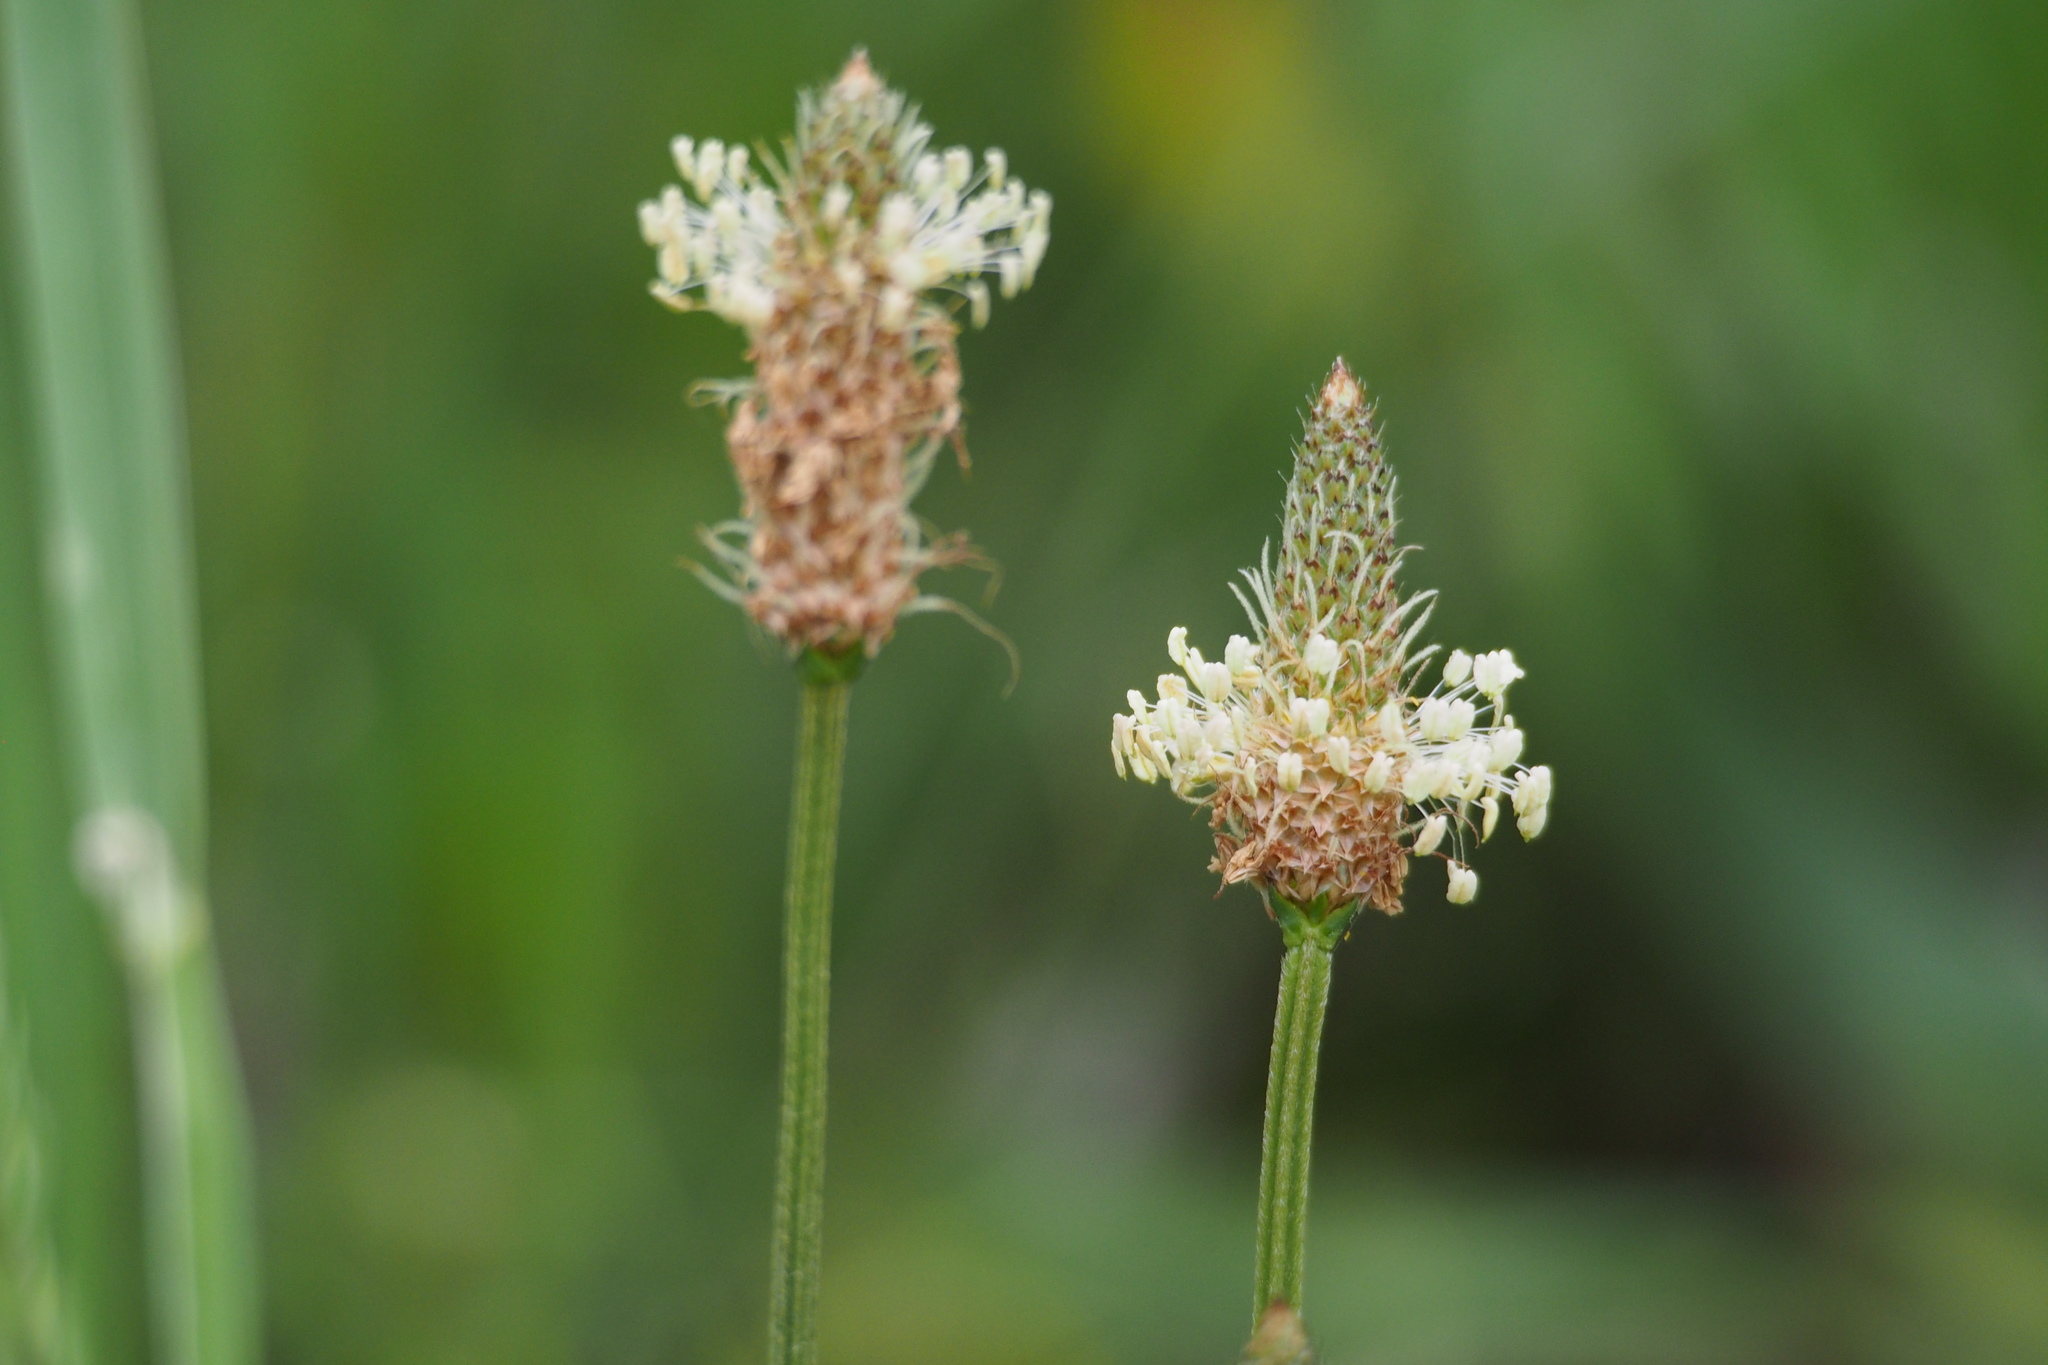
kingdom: Plantae
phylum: Tracheophyta
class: Magnoliopsida
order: Lamiales
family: Plantaginaceae
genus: Plantago
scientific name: Plantago lanceolata
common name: Ribwort plantain
